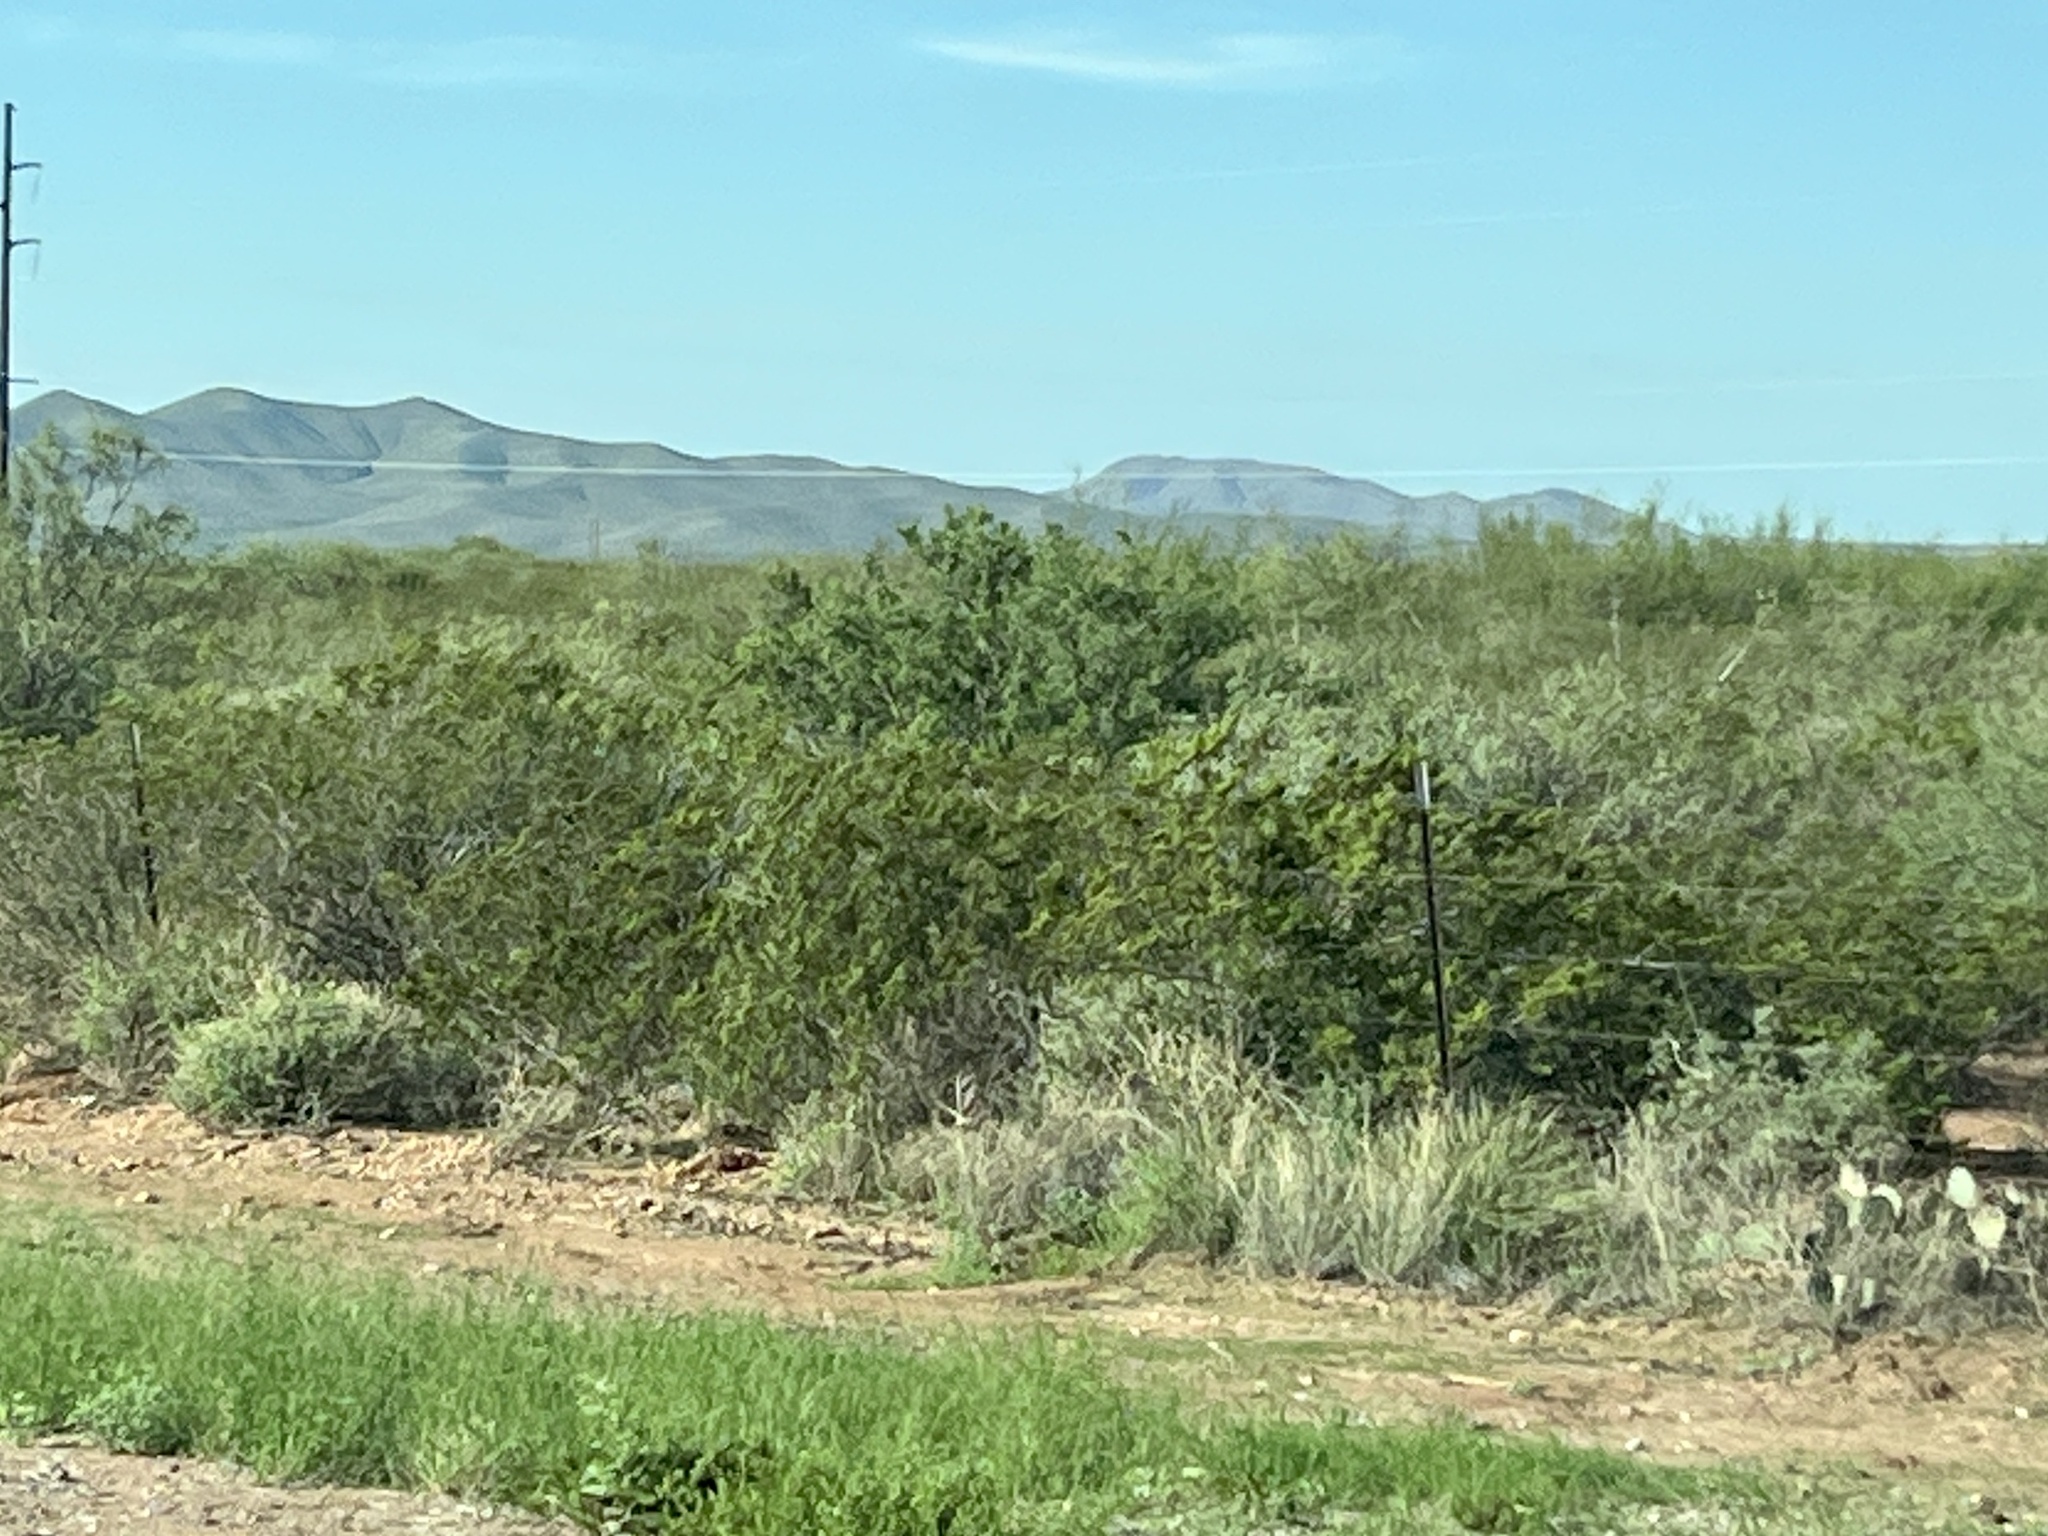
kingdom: Plantae
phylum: Tracheophyta
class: Magnoliopsida
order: Zygophyllales
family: Zygophyllaceae
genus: Larrea
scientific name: Larrea tridentata
